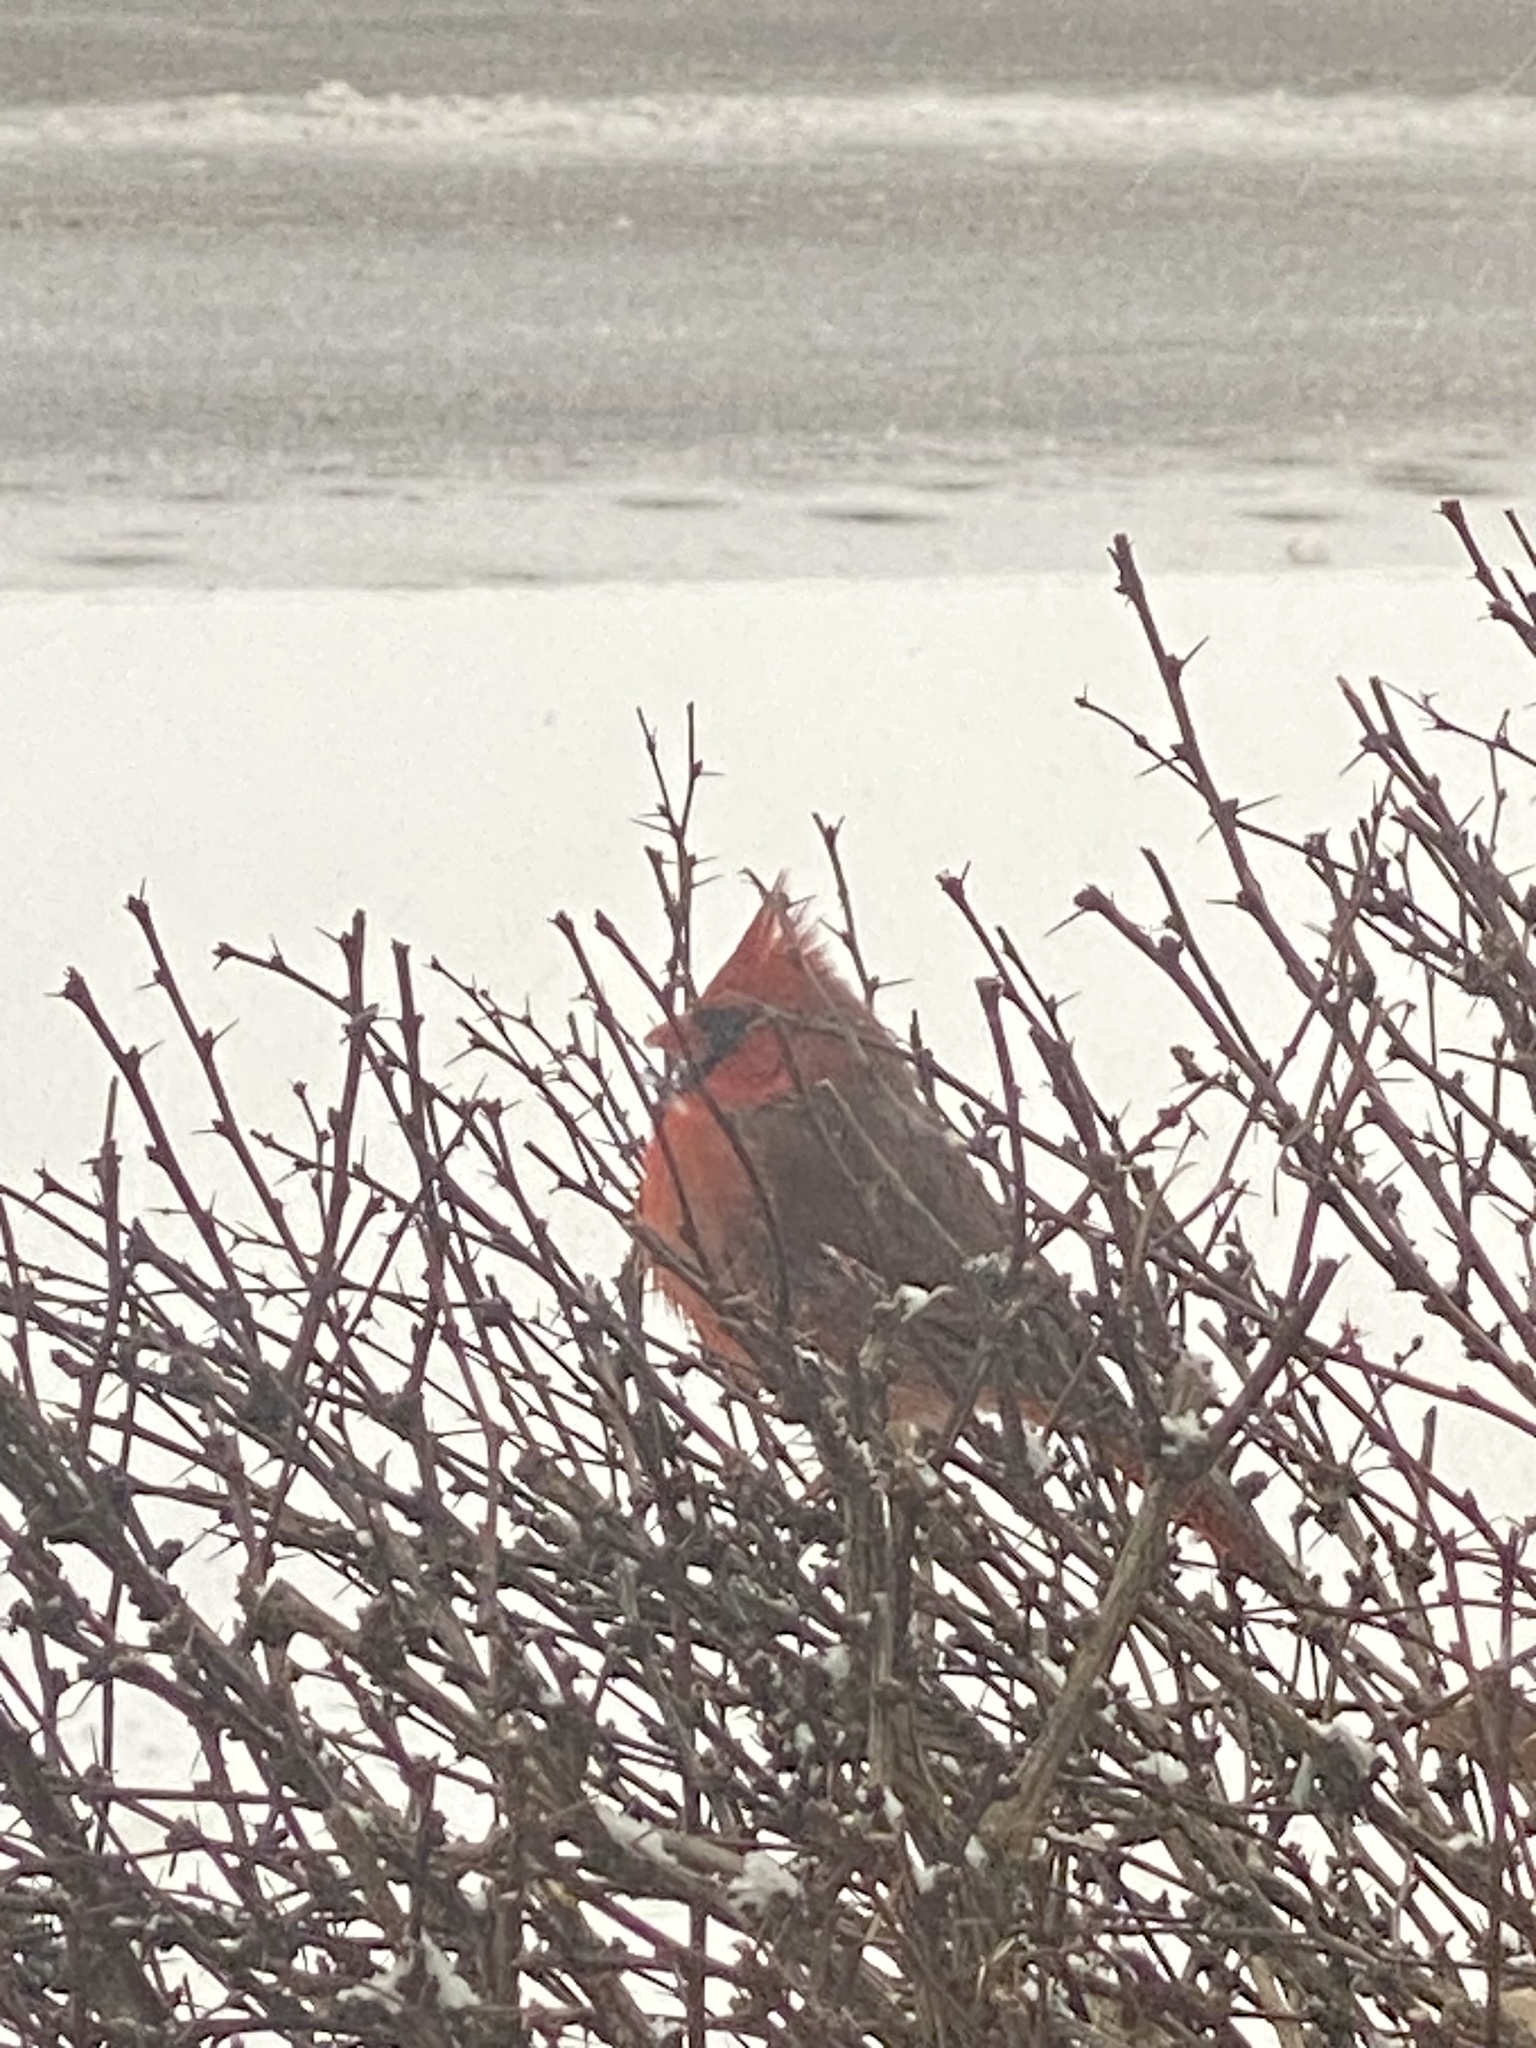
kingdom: Animalia
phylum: Chordata
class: Aves
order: Passeriformes
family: Cardinalidae
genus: Cardinalis
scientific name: Cardinalis cardinalis
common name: Northern cardinal
